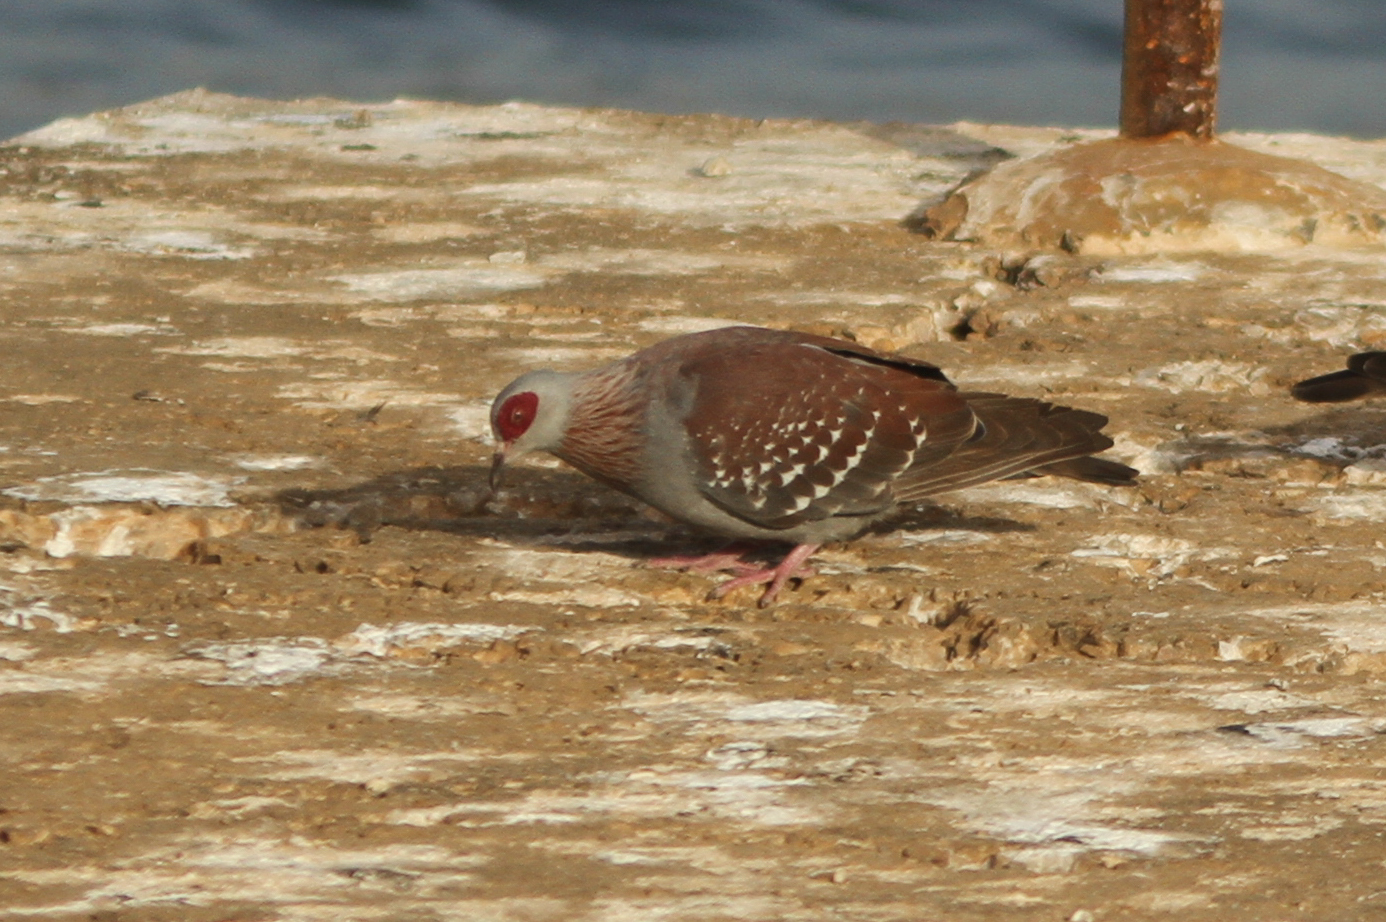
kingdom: Animalia
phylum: Chordata
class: Aves
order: Columbiformes
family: Columbidae
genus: Columba
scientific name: Columba guinea
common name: Speckled pigeon
